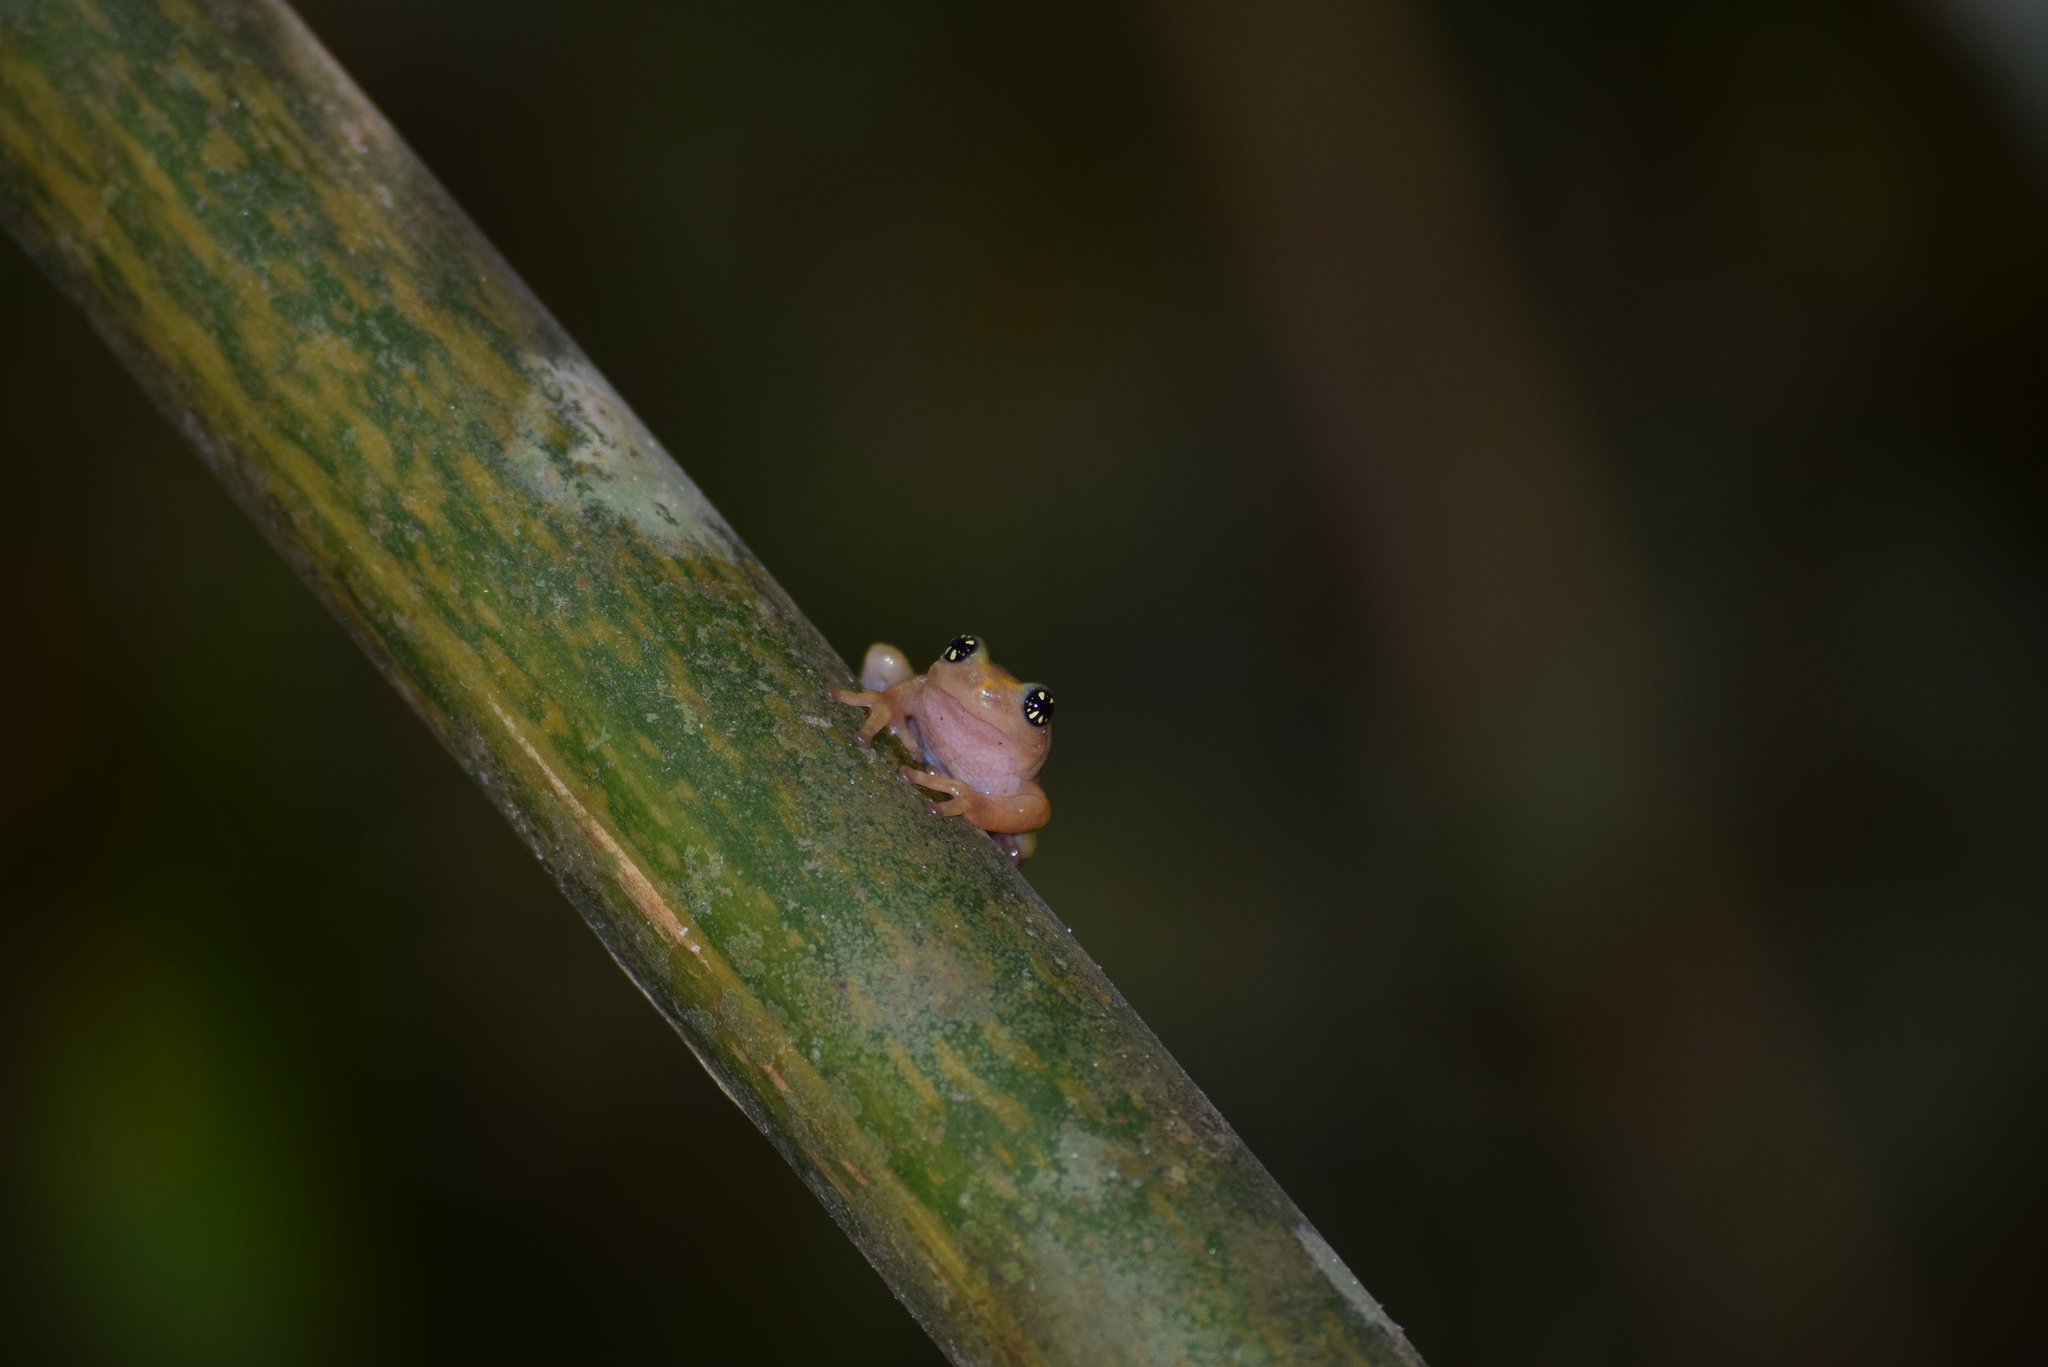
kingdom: Animalia
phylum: Chordata
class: Amphibia
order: Anura
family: Rhacophoridae
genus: Raorchestes
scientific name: Raorchestes ochlandrae
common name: Ochlandrae reed frog
